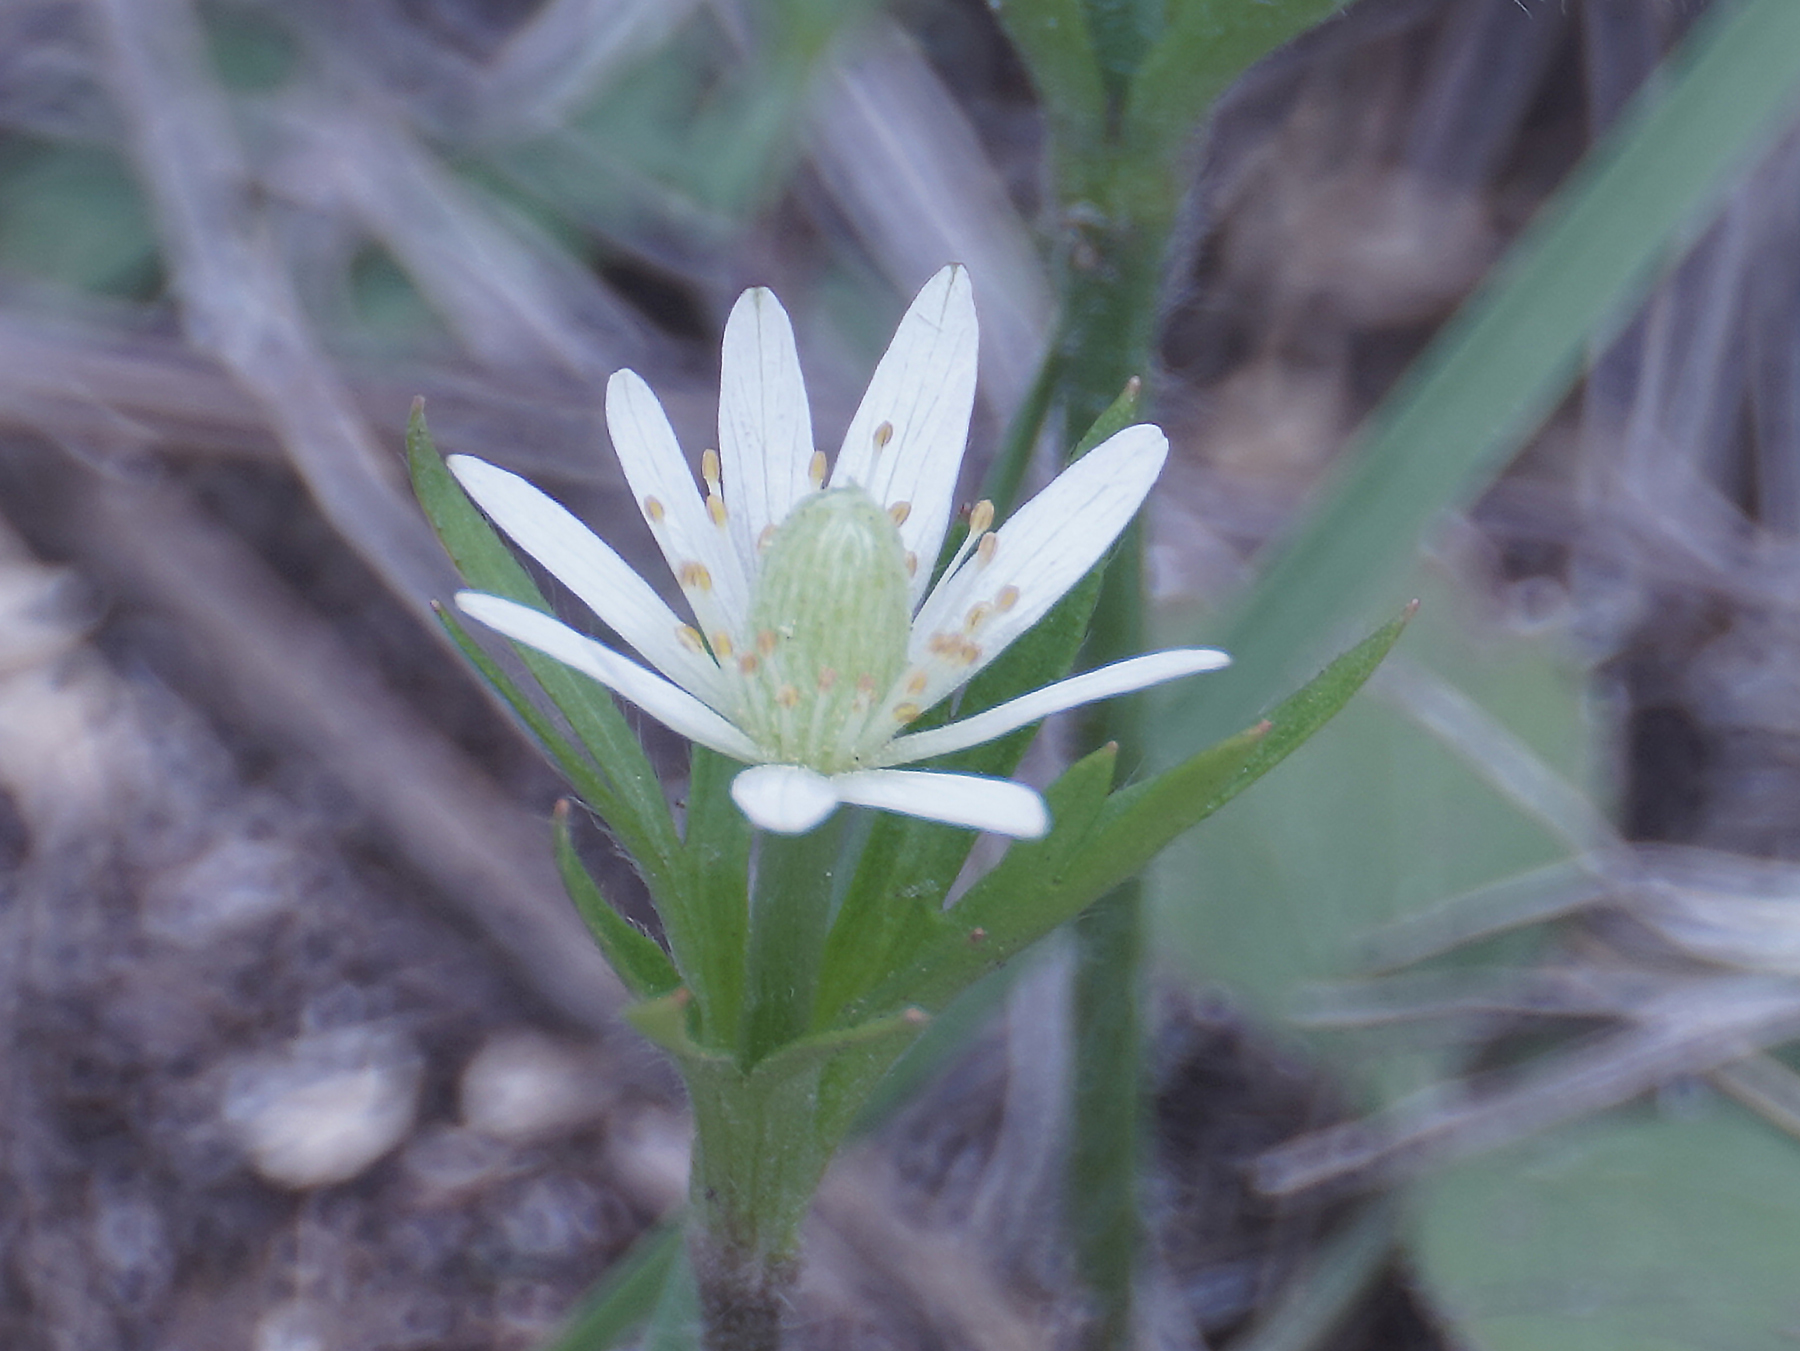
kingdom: Plantae
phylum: Tracheophyta
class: Magnoliopsida
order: Ranunculales
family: Ranunculaceae
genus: Anemone
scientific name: Anemone berlandieri
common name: Ten-petal anemone
